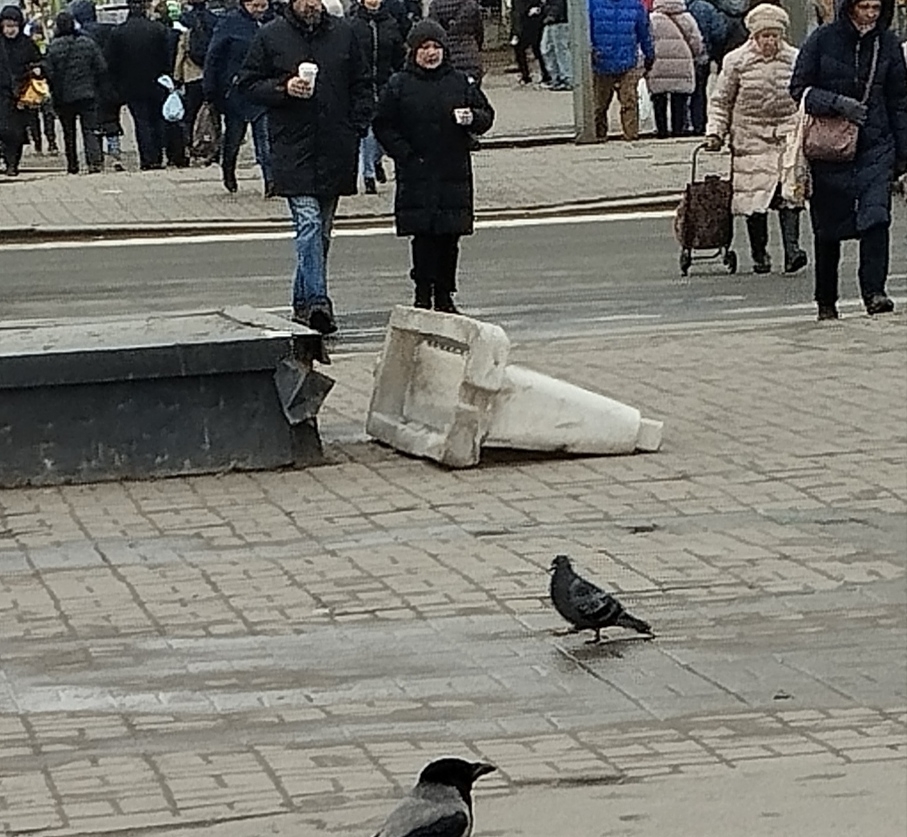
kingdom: Animalia
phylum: Chordata
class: Aves
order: Columbiformes
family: Columbidae
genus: Columba
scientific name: Columba livia
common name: Rock pigeon
